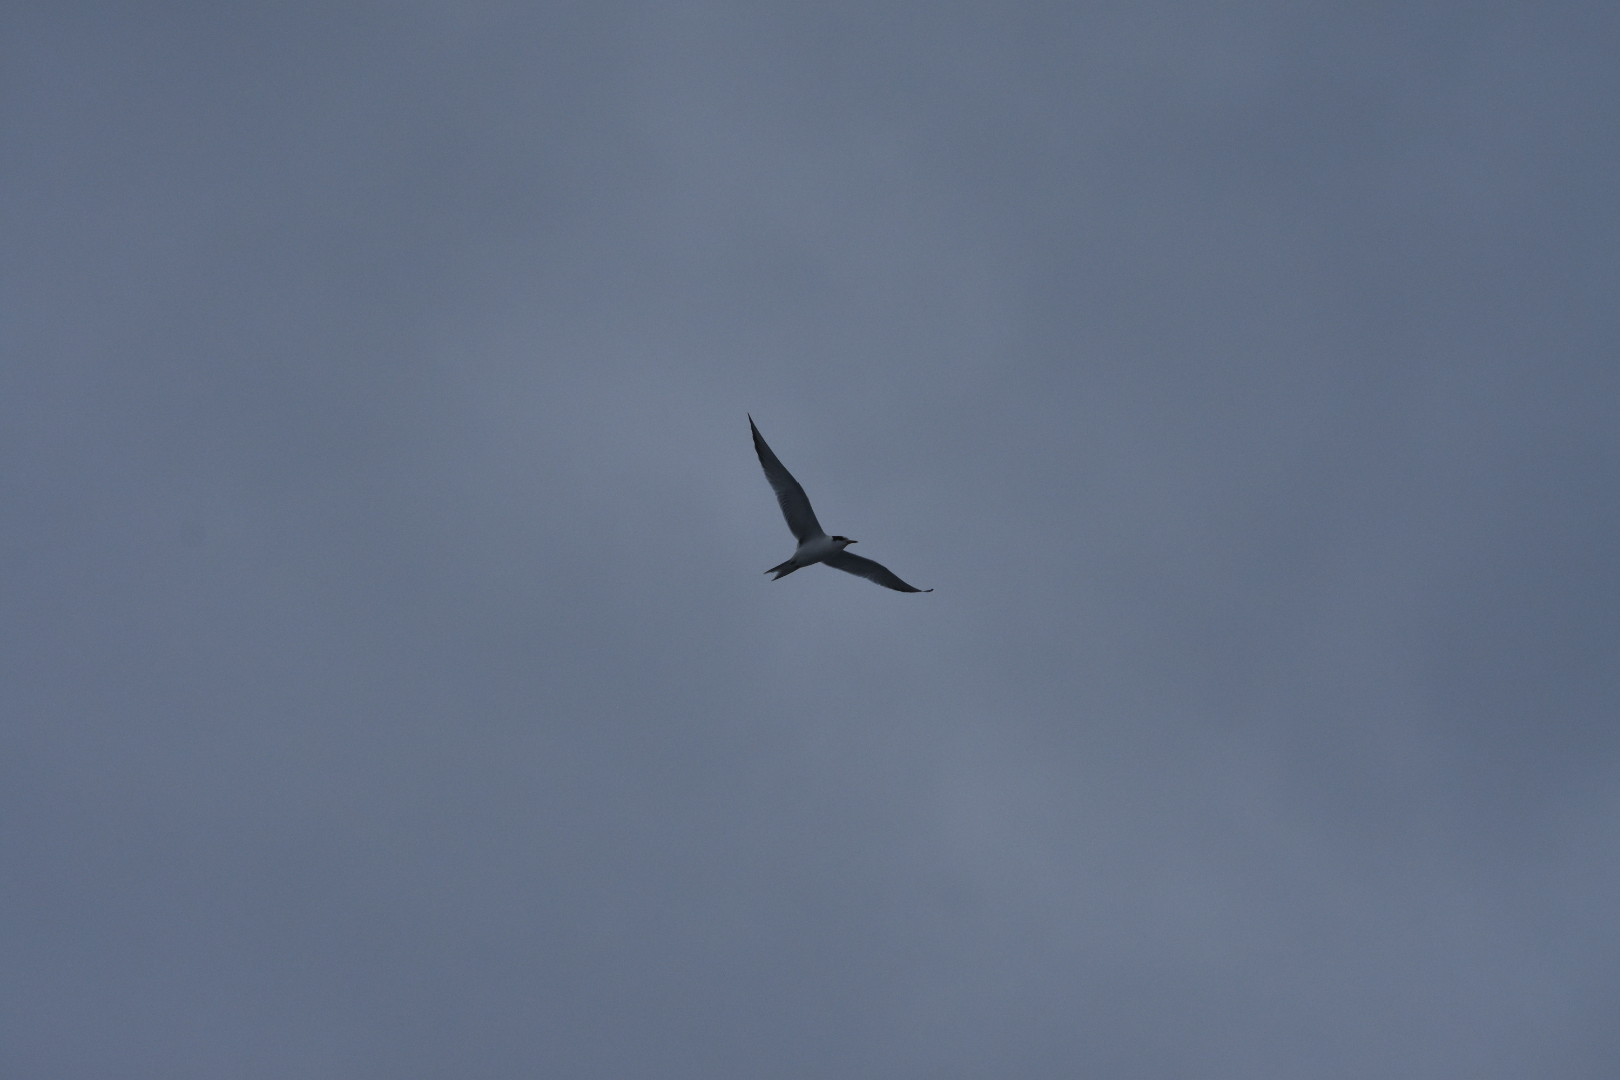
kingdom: Animalia
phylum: Chordata
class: Aves
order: Charadriiformes
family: Laridae
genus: Sterna
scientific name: Sterna hirundo
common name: Common tern
